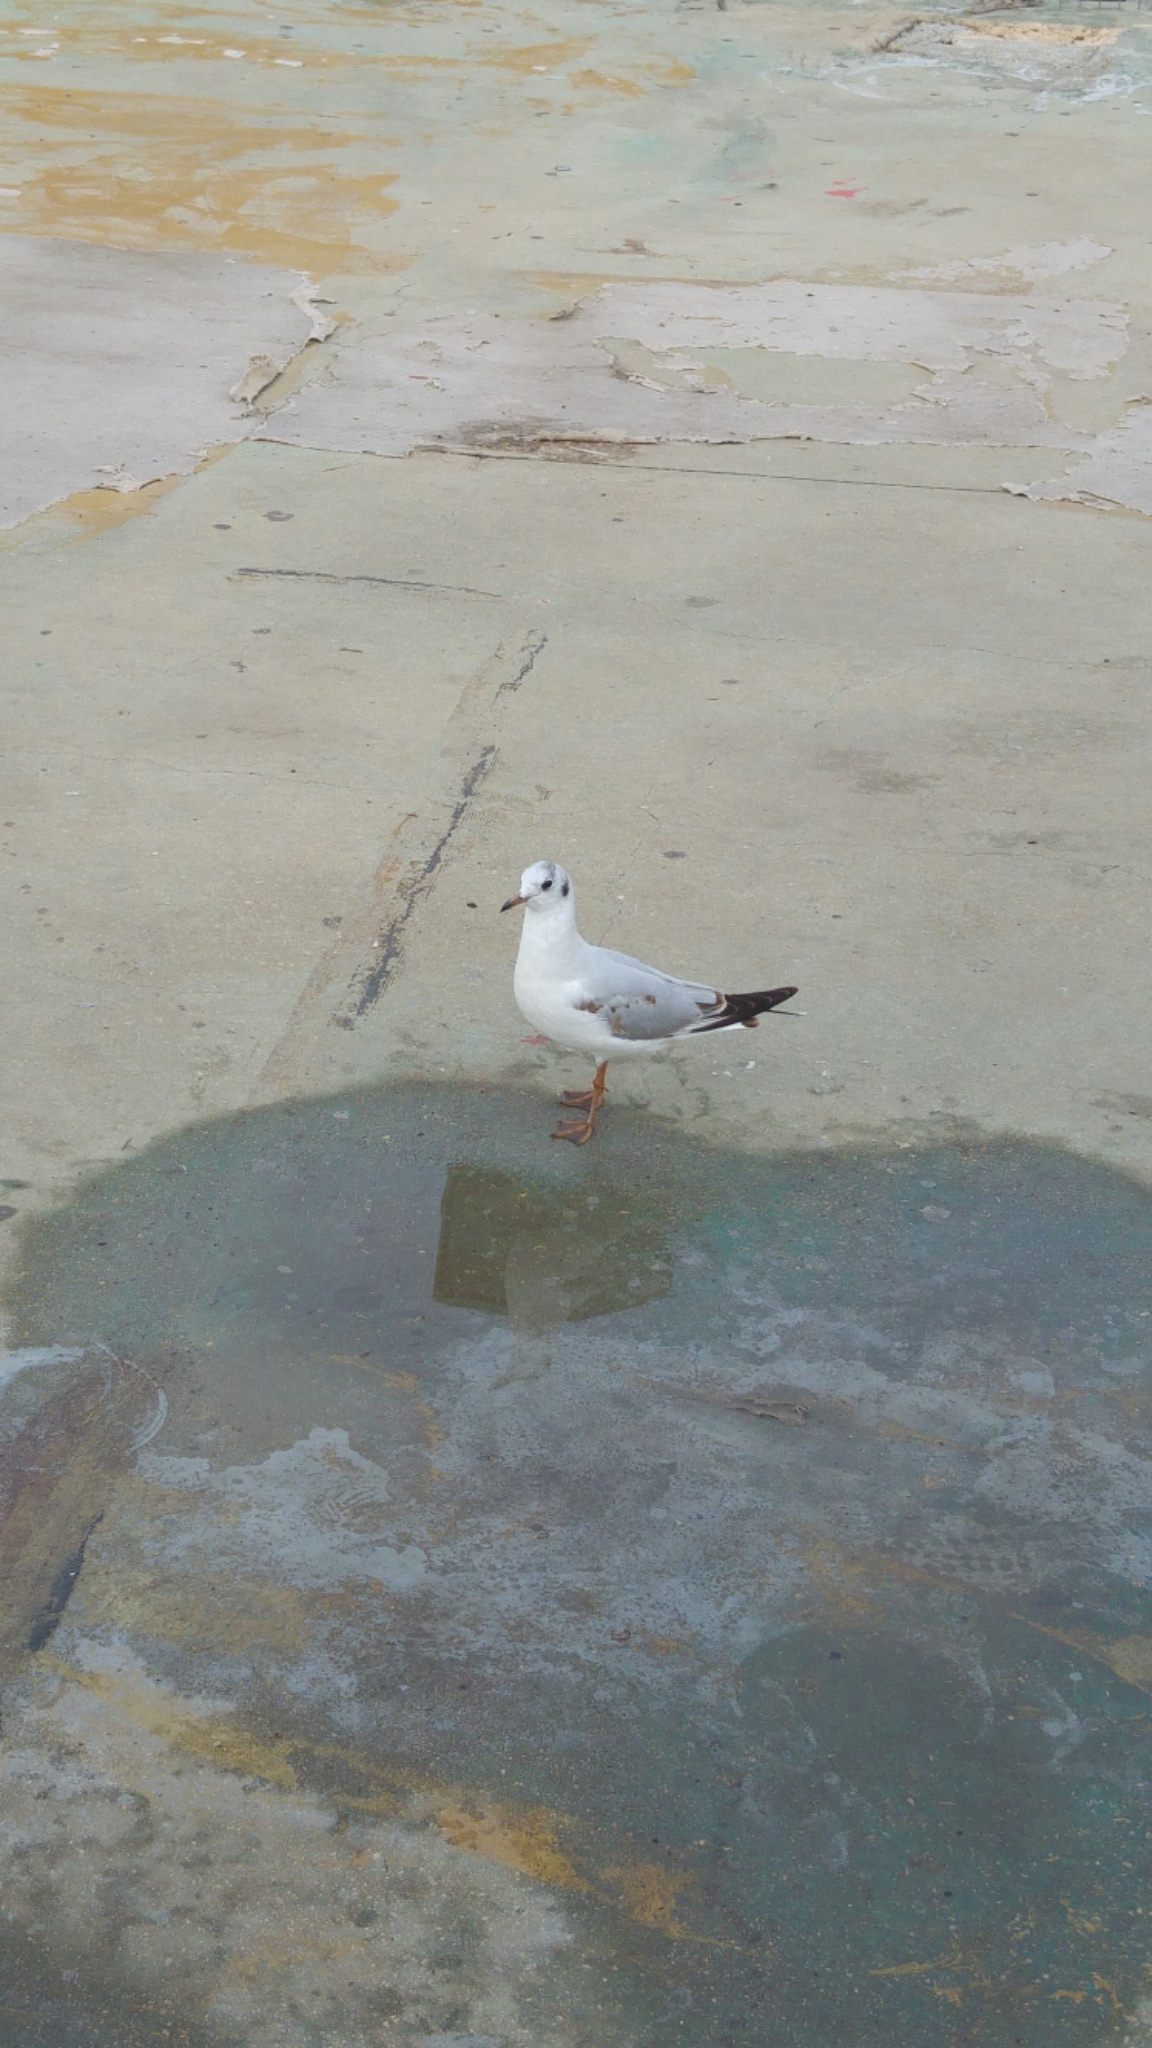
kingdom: Animalia
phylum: Chordata
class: Aves
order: Charadriiformes
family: Laridae
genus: Chroicocephalus
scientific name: Chroicocephalus ridibundus
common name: Black-headed gull
